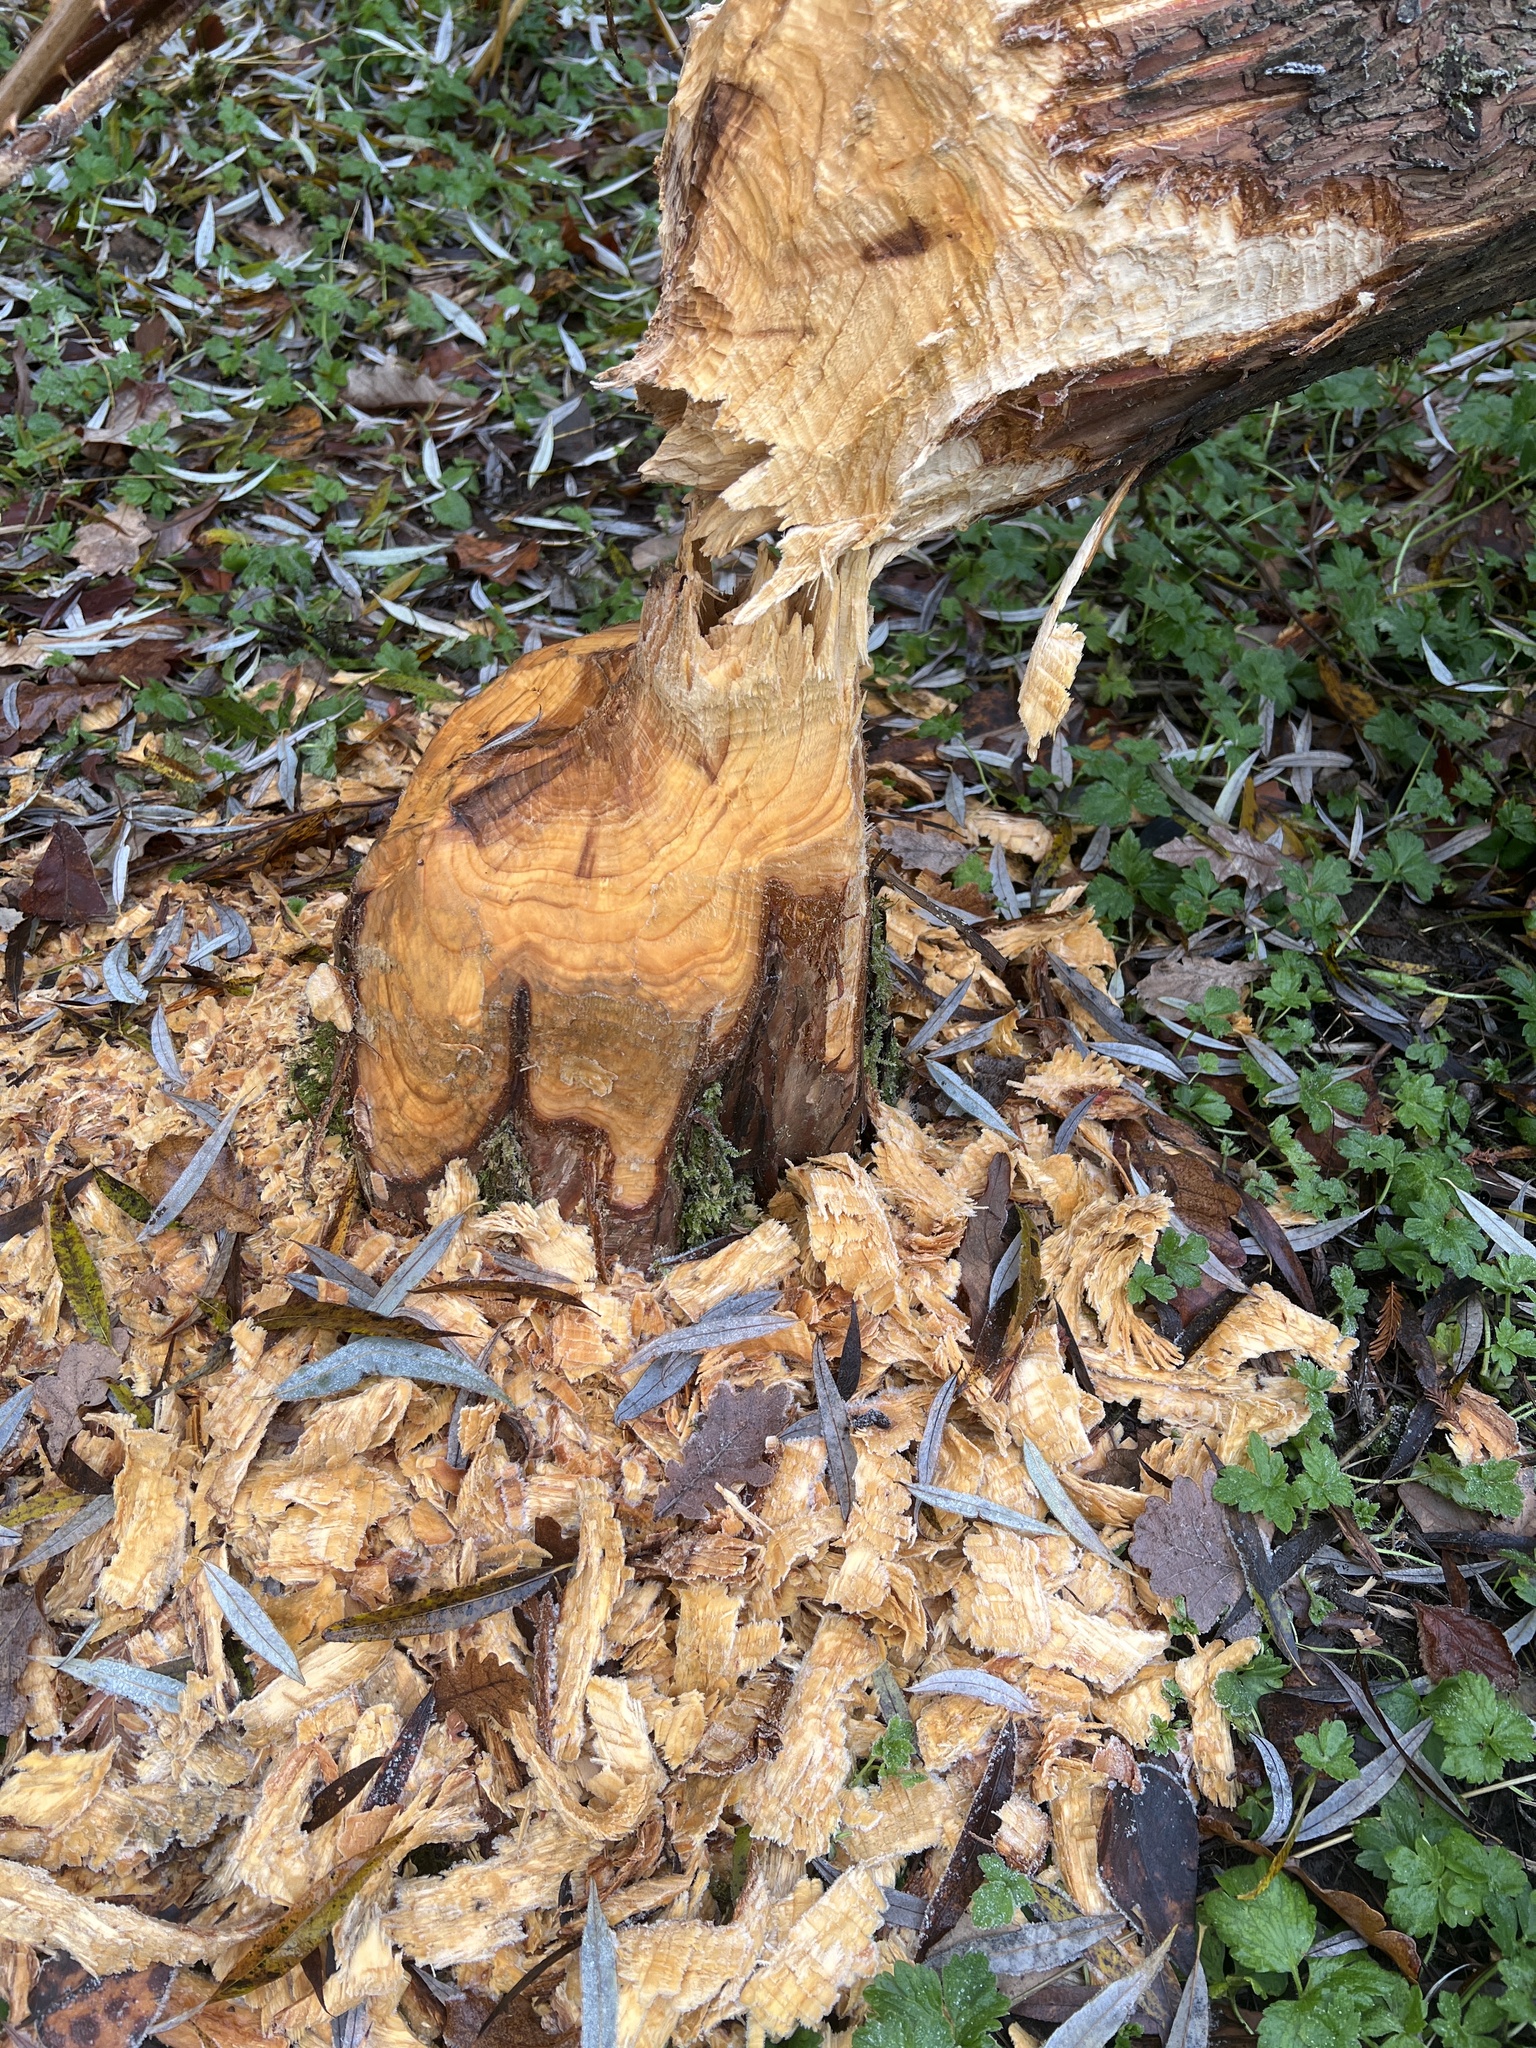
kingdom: Animalia
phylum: Chordata
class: Mammalia
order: Rodentia
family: Castoridae
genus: Castor
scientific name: Castor canadensis
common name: American beaver
